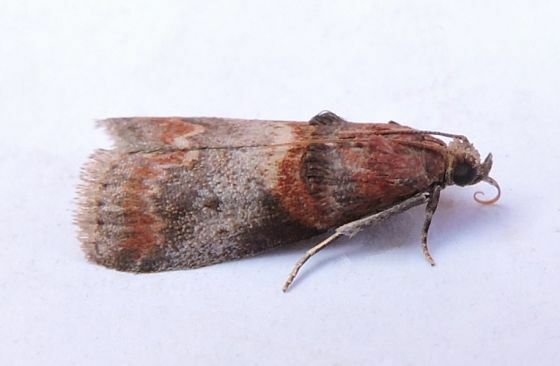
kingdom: Animalia
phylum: Arthropoda
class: Insecta
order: Lepidoptera
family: Pyralidae
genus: Acrobasis
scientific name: Acrobasis angusella
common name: Hickory leafstem borer moth
